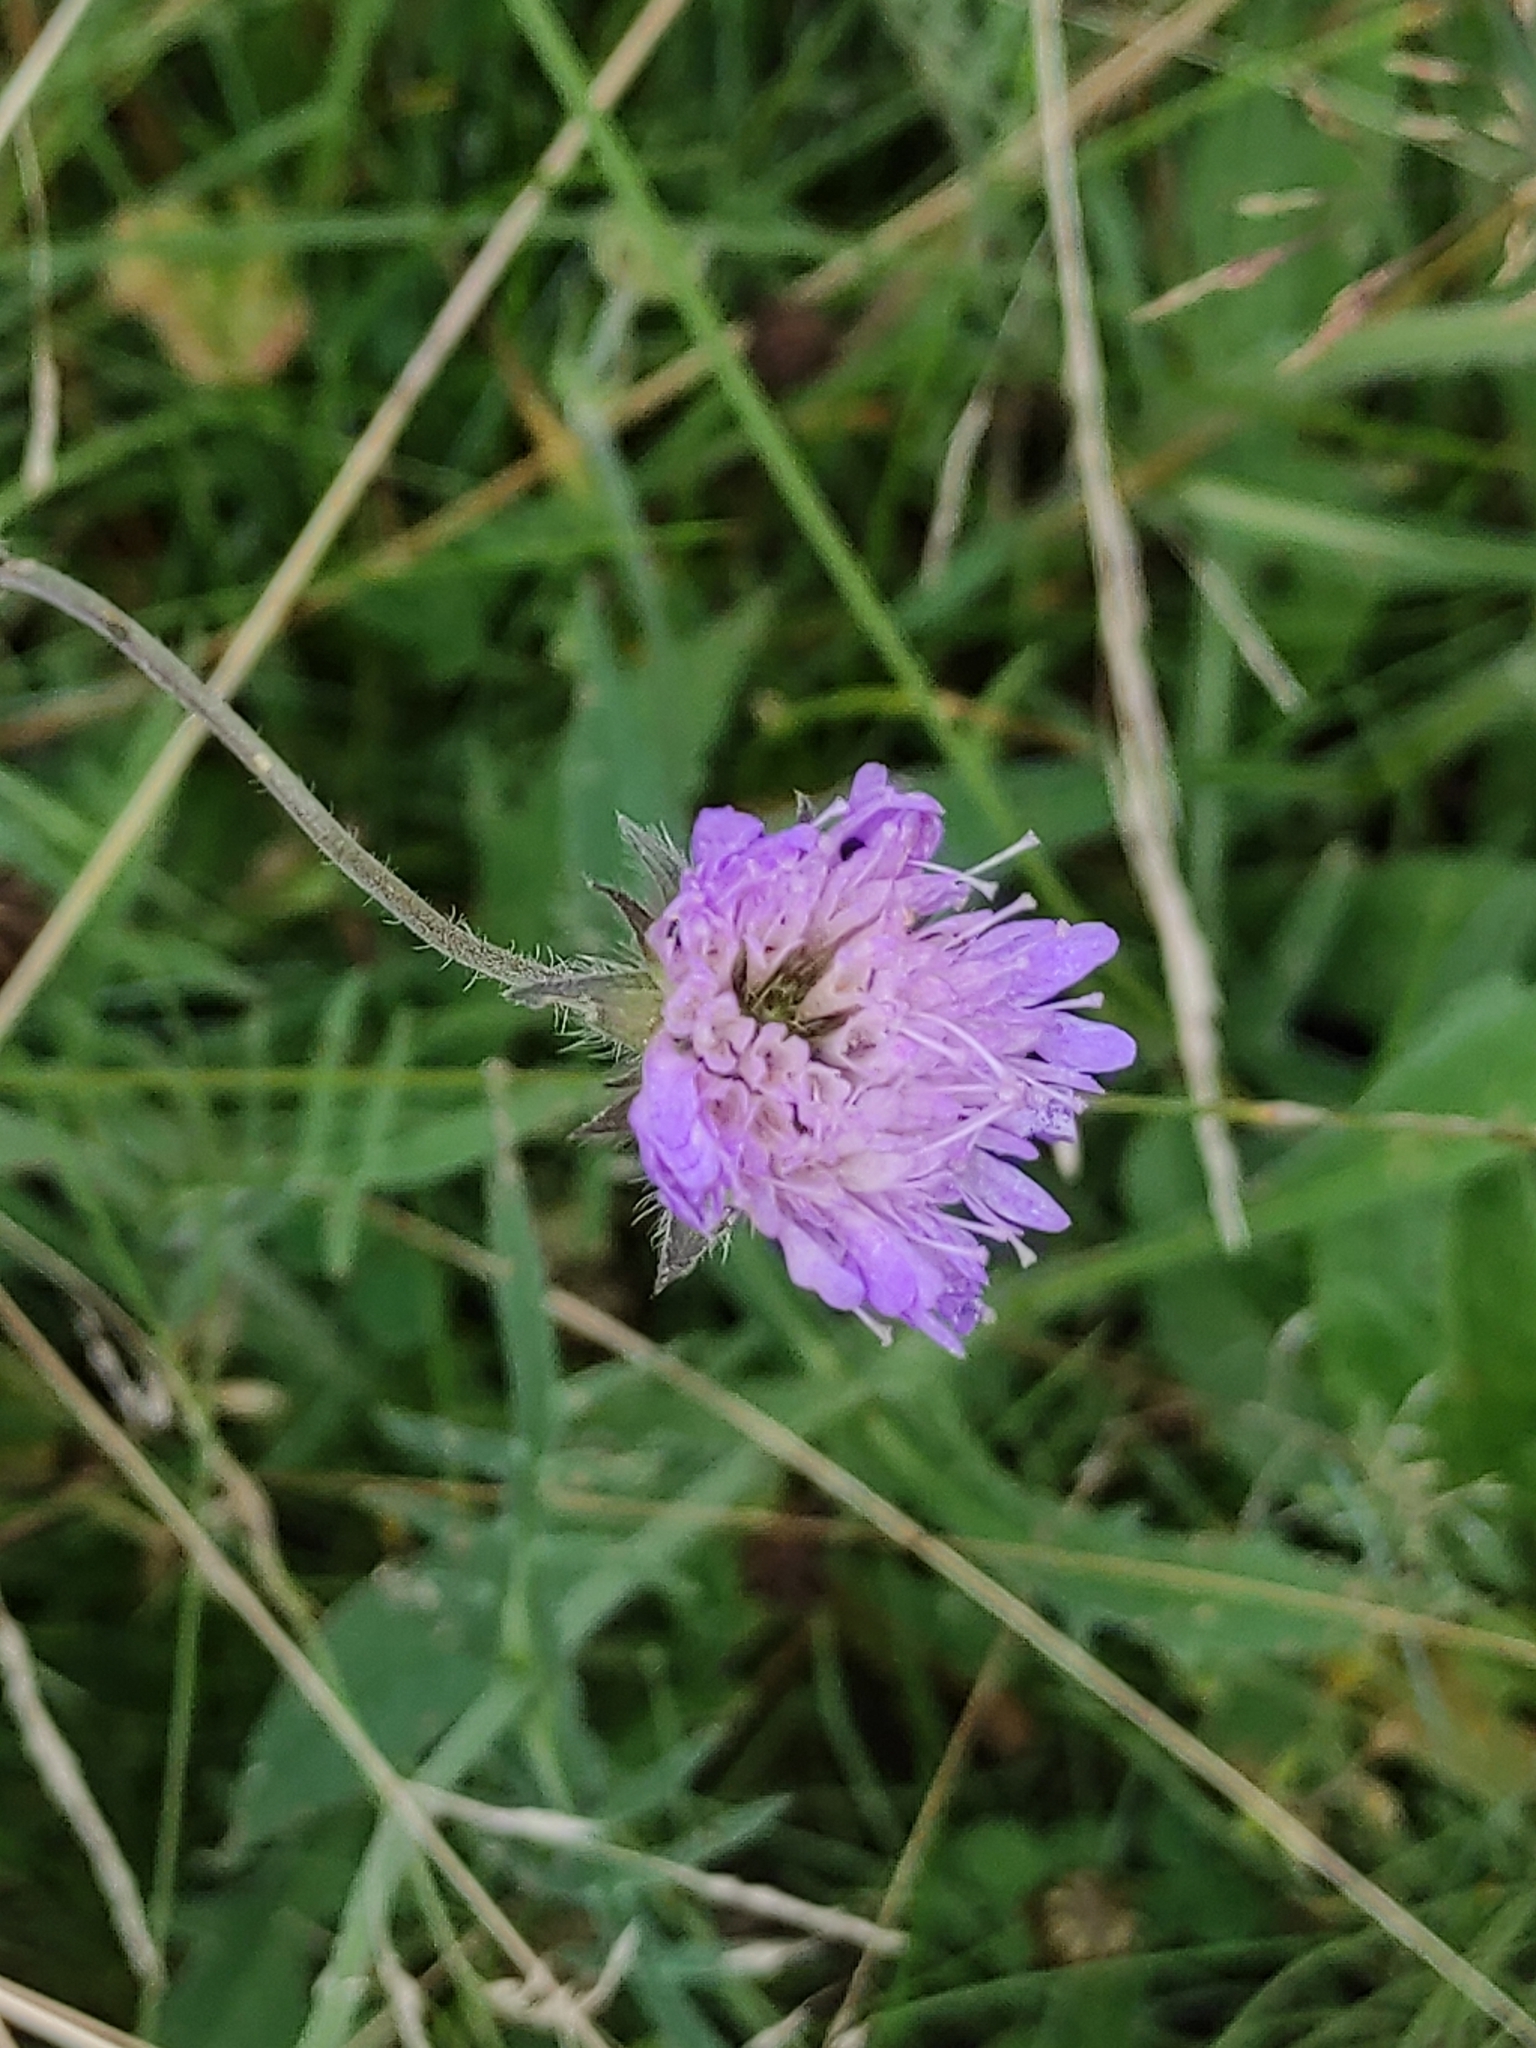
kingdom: Plantae
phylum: Tracheophyta
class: Magnoliopsida
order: Dipsacales
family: Caprifoliaceae
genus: Knautia
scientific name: Knautia arvensis
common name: Field scabiosa
